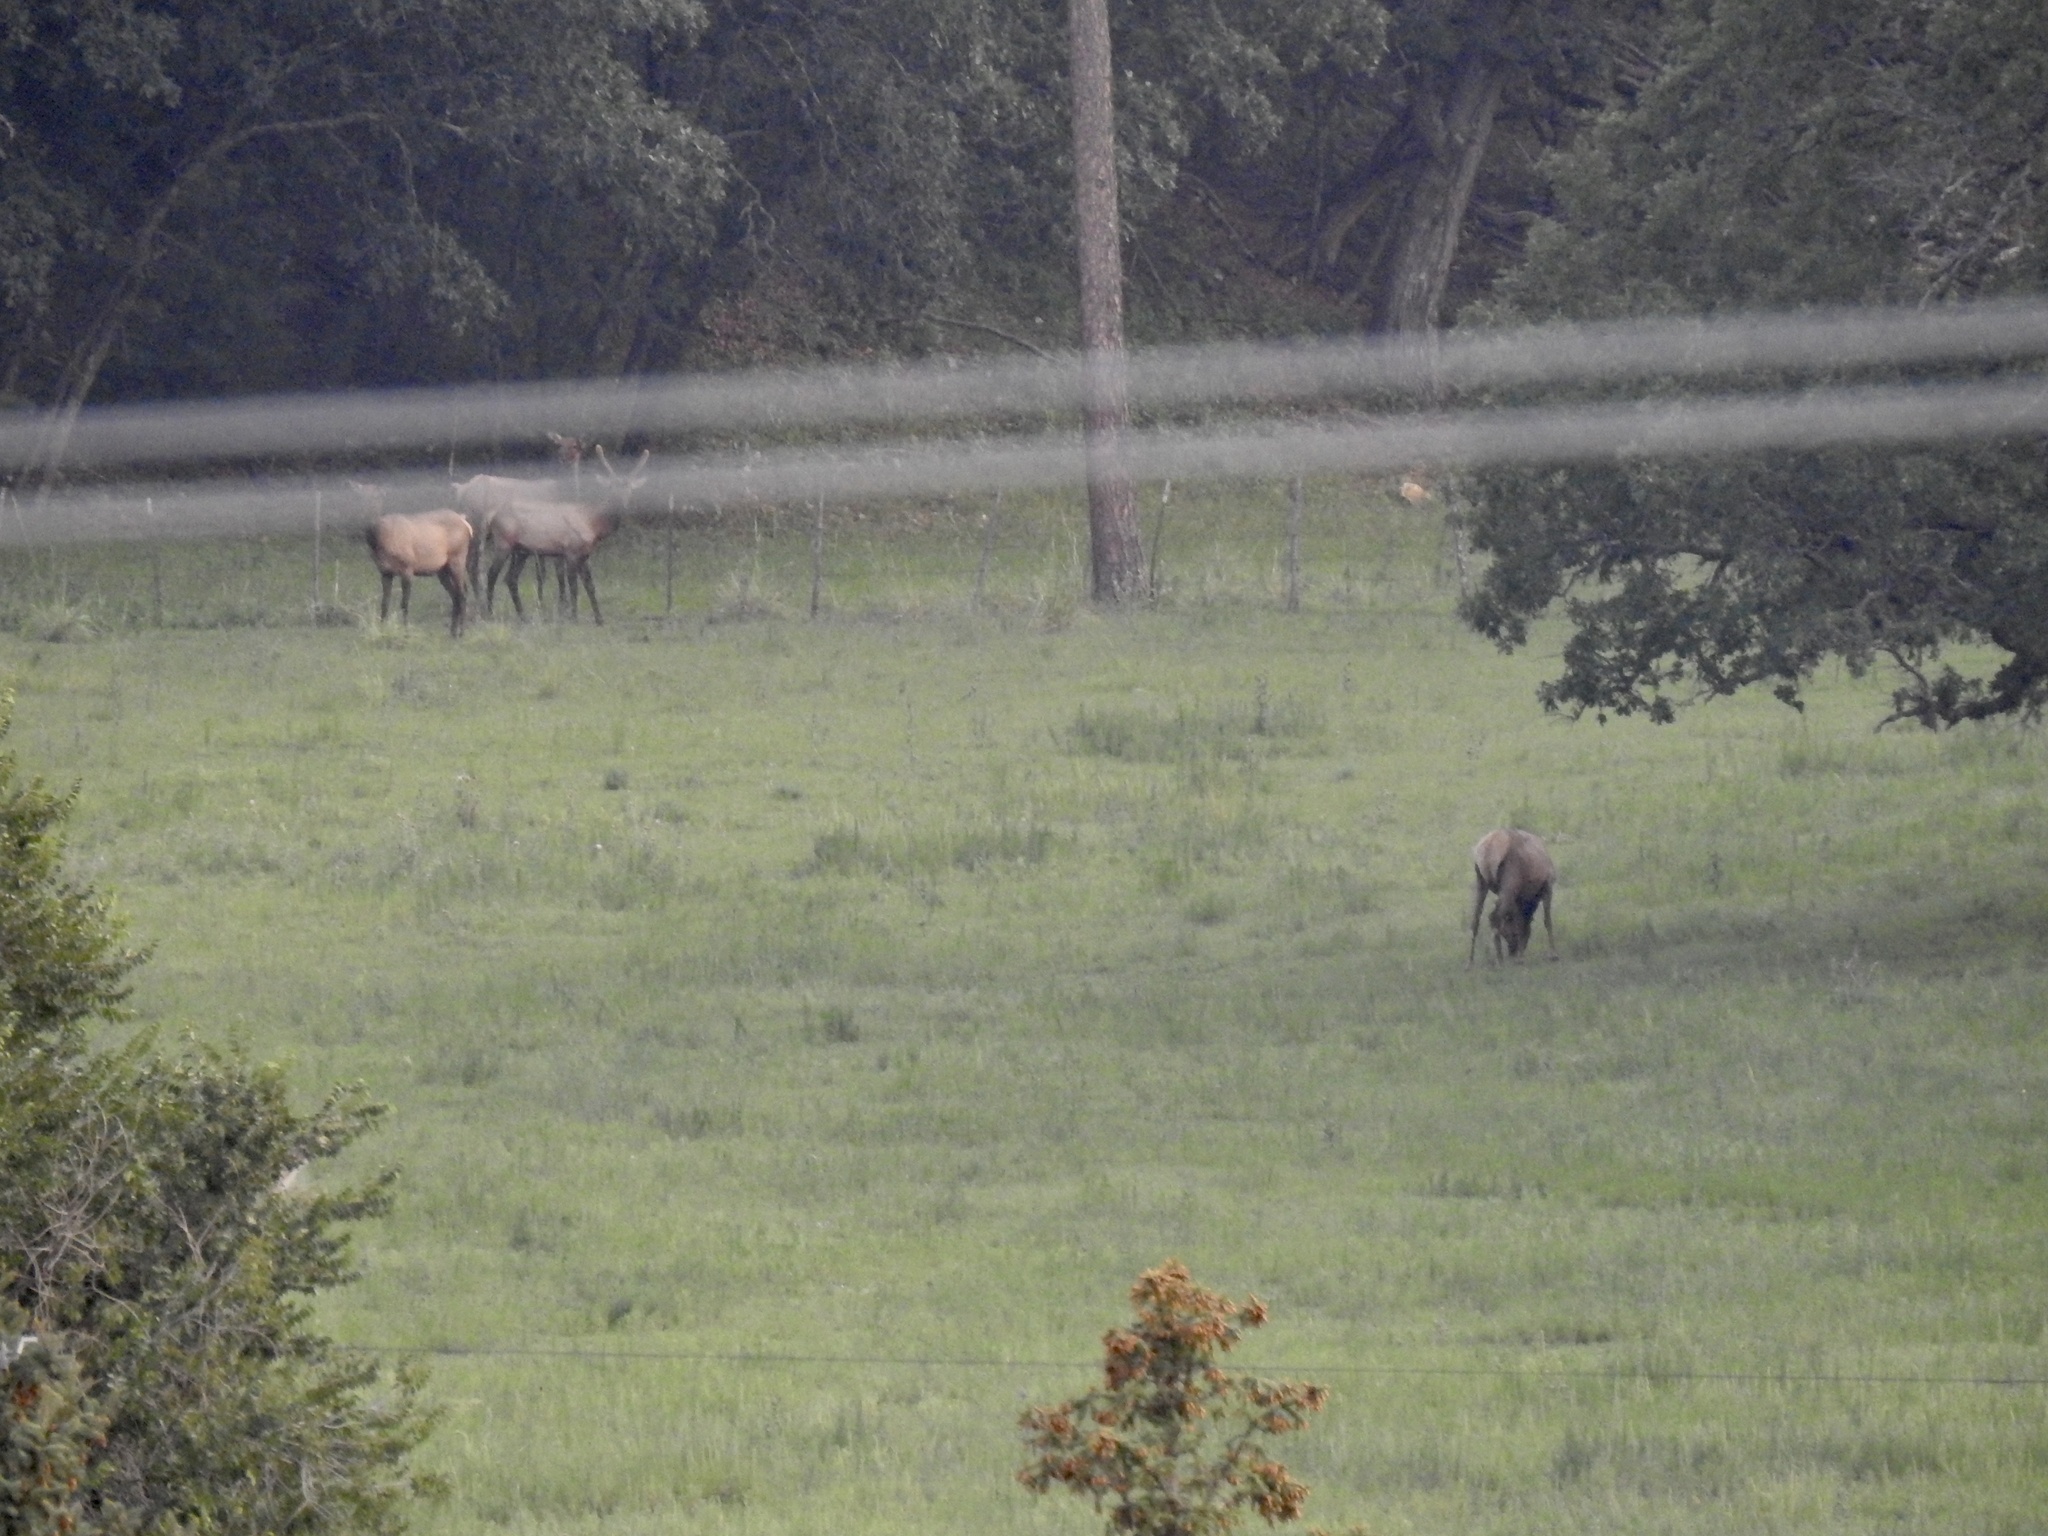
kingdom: Animalia
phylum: Chordata
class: Mammalia
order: Artiodactyla
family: Cervidae
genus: Cervus
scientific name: Cervus elaphus
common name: Red deer
